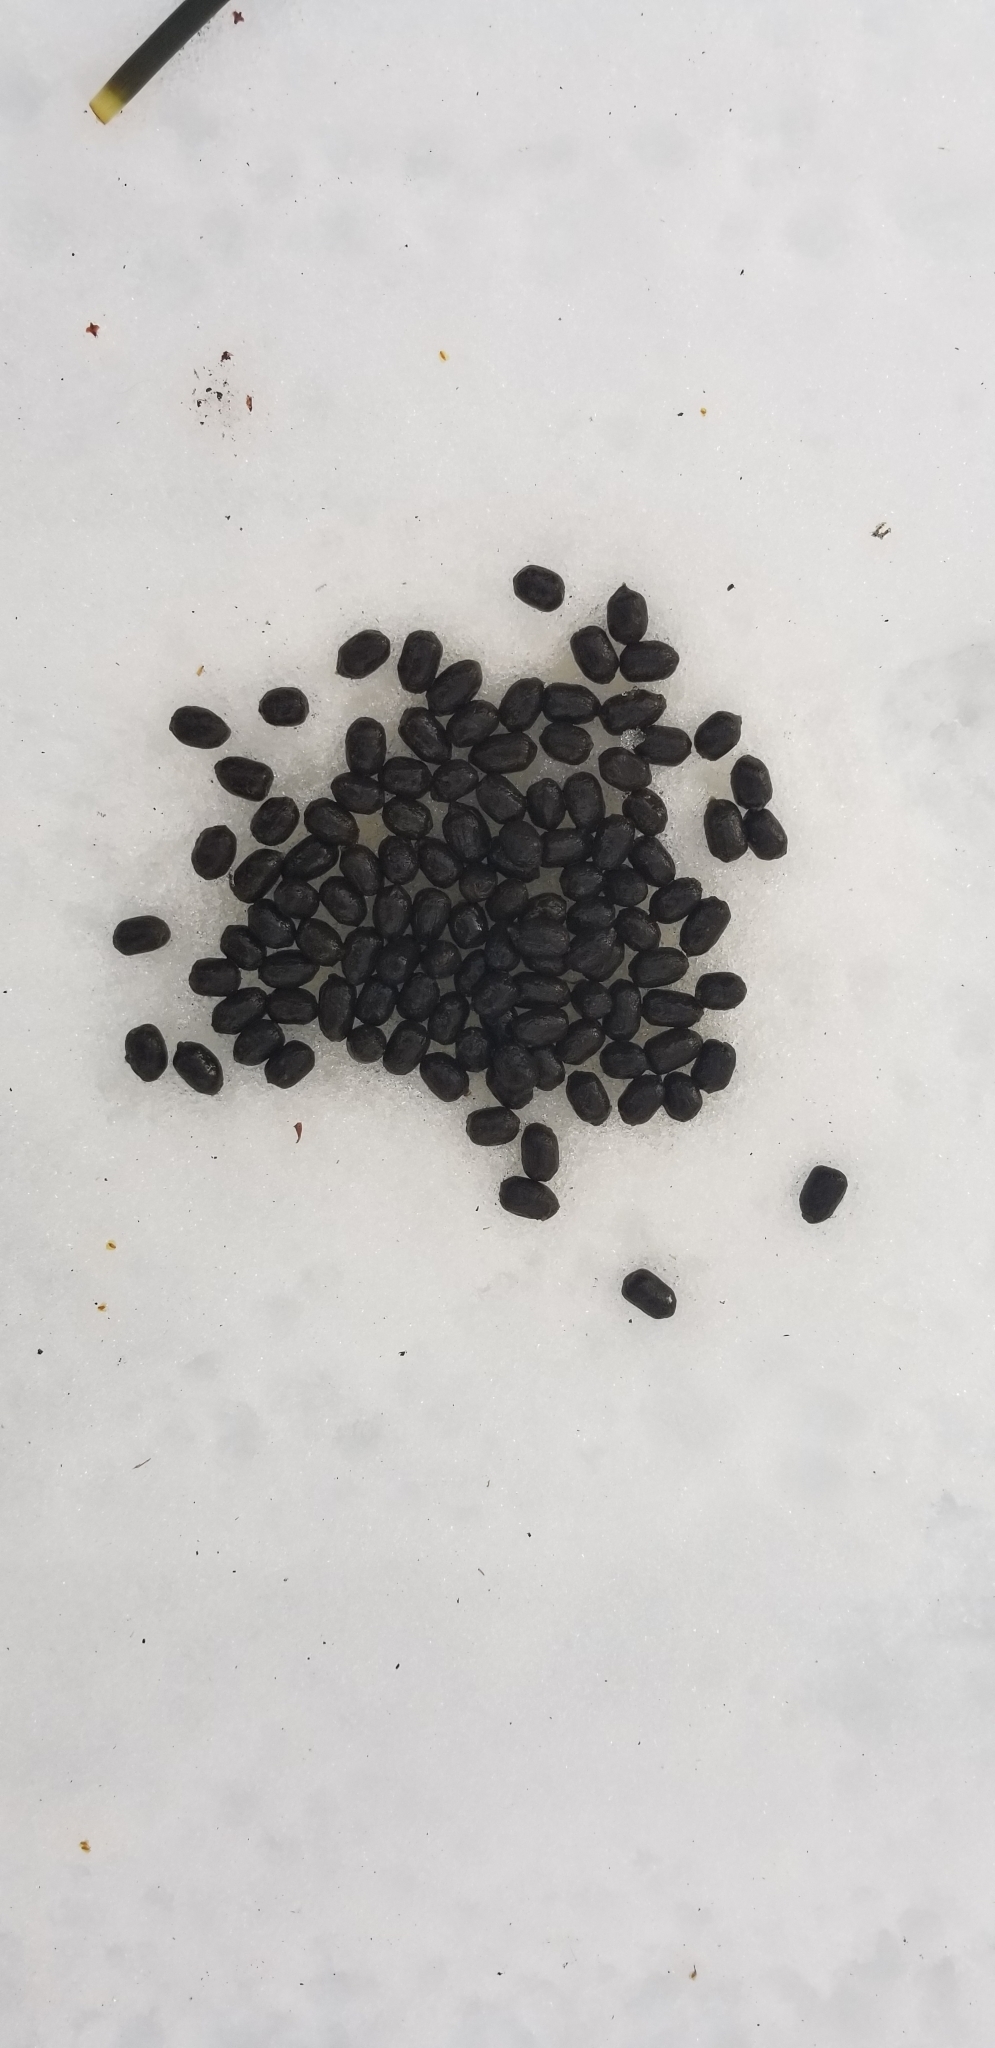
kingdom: Animalia
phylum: Chordata
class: Mammalia
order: Artiodactyla
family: Cervidae
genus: Odocoileus
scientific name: Odocoileus virginianus
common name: White-tailed deer
